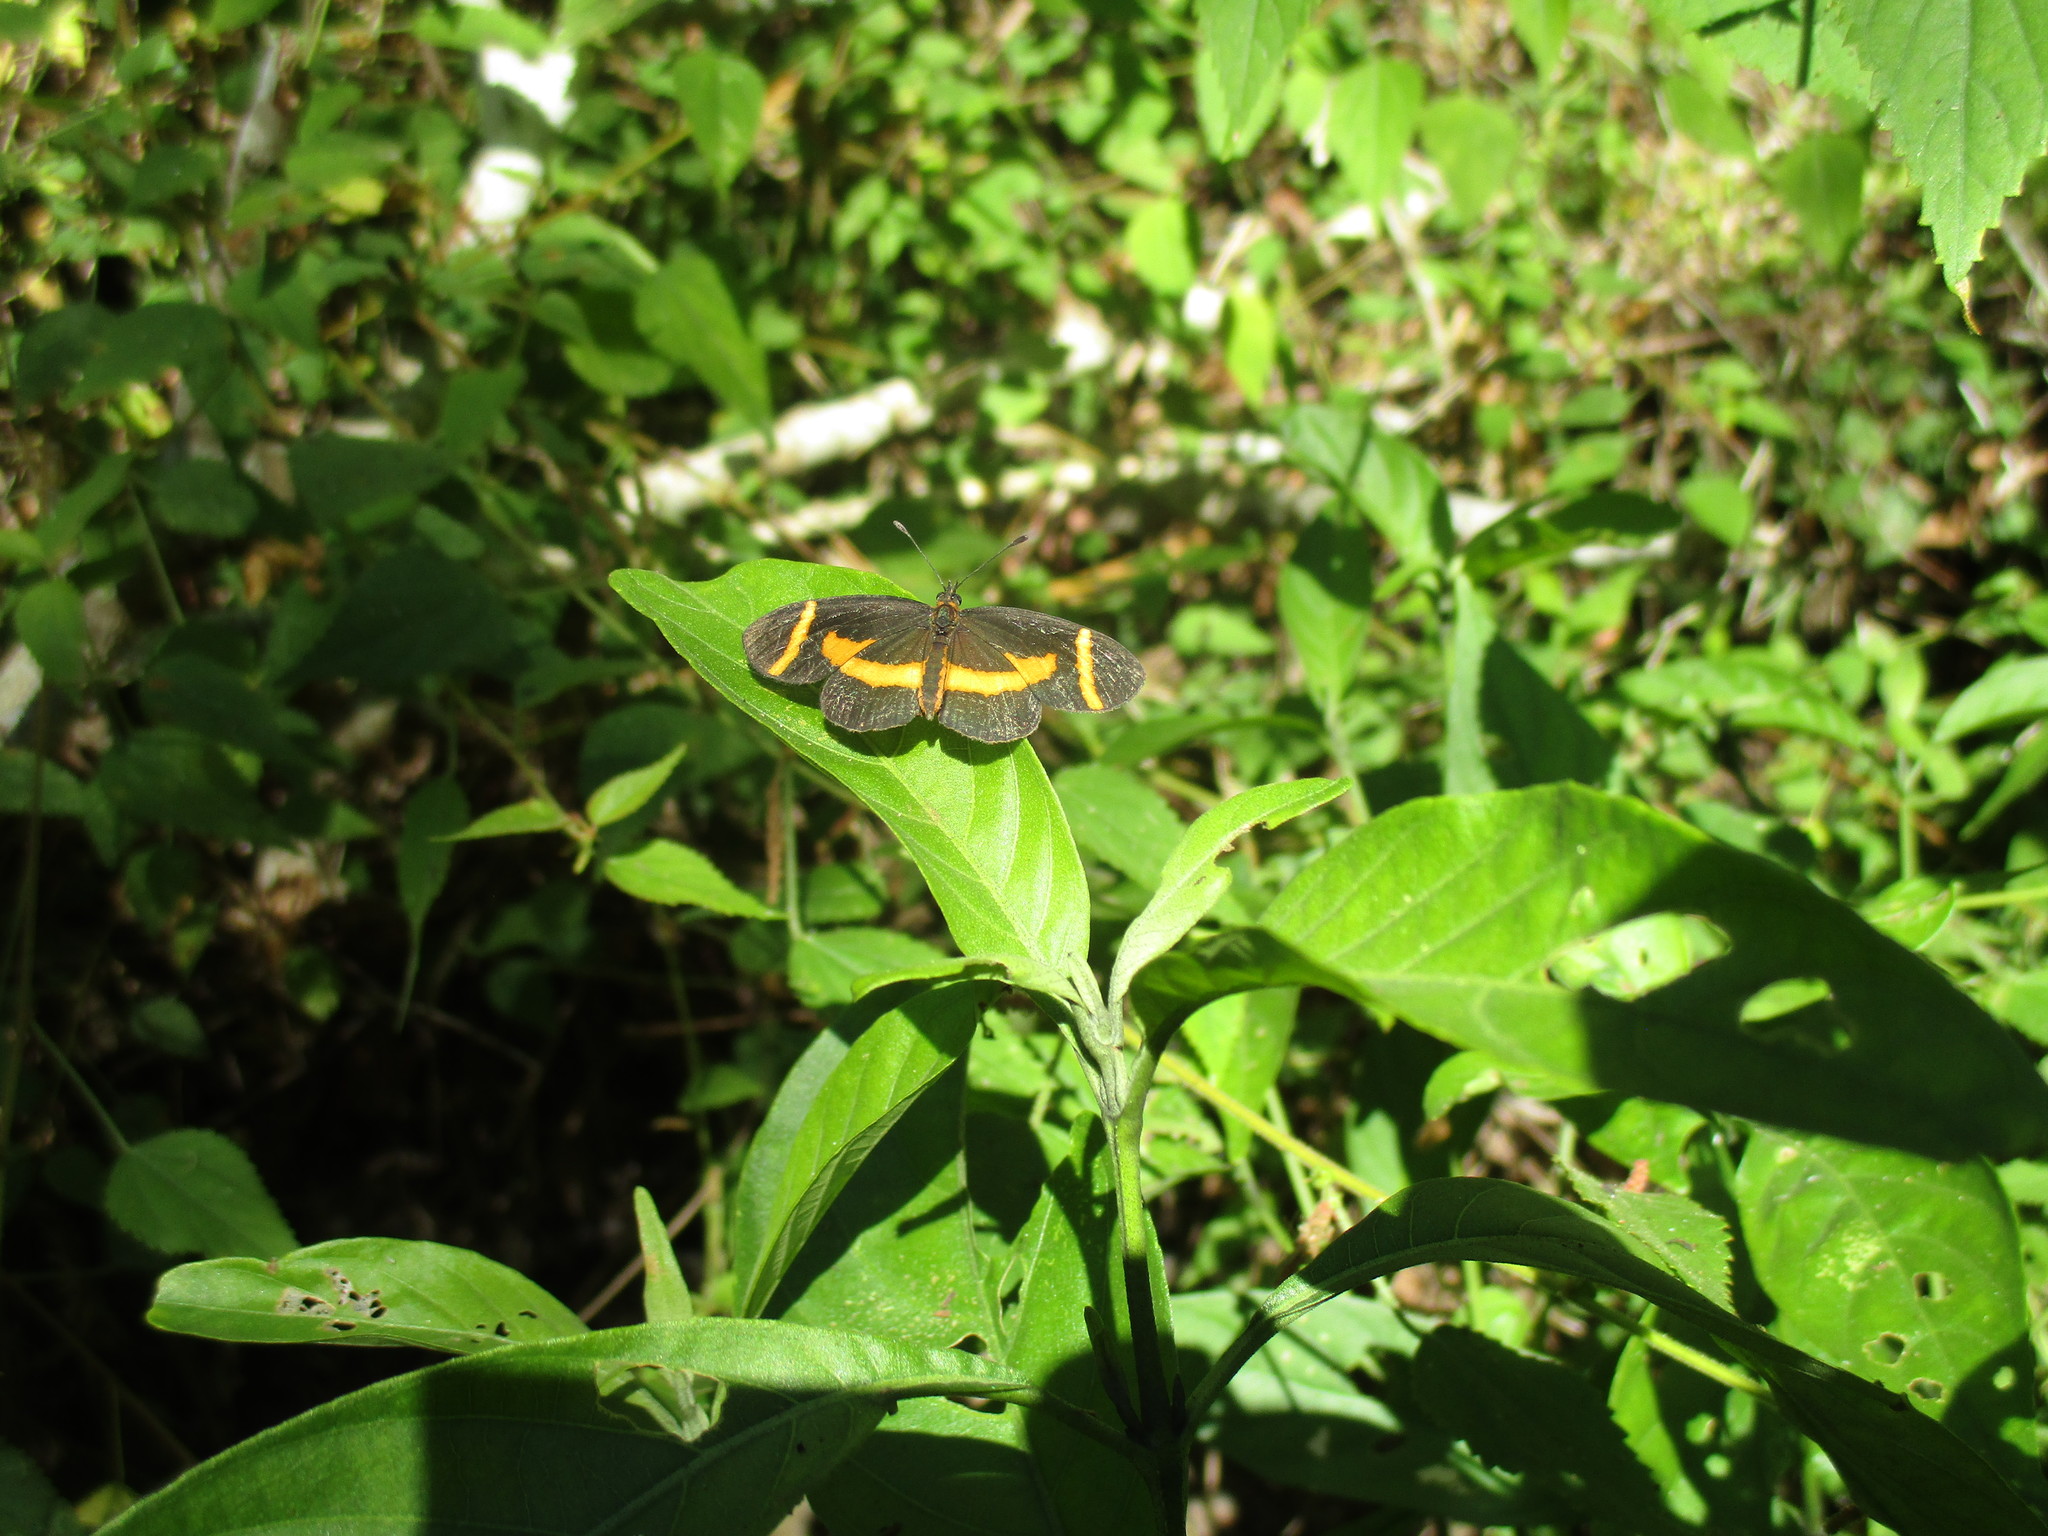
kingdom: Animalia
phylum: Arthropoda
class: Insecta
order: Lepidoptera
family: Nymphalidae
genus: Microtia
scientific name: Microtia elva
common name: Elf
